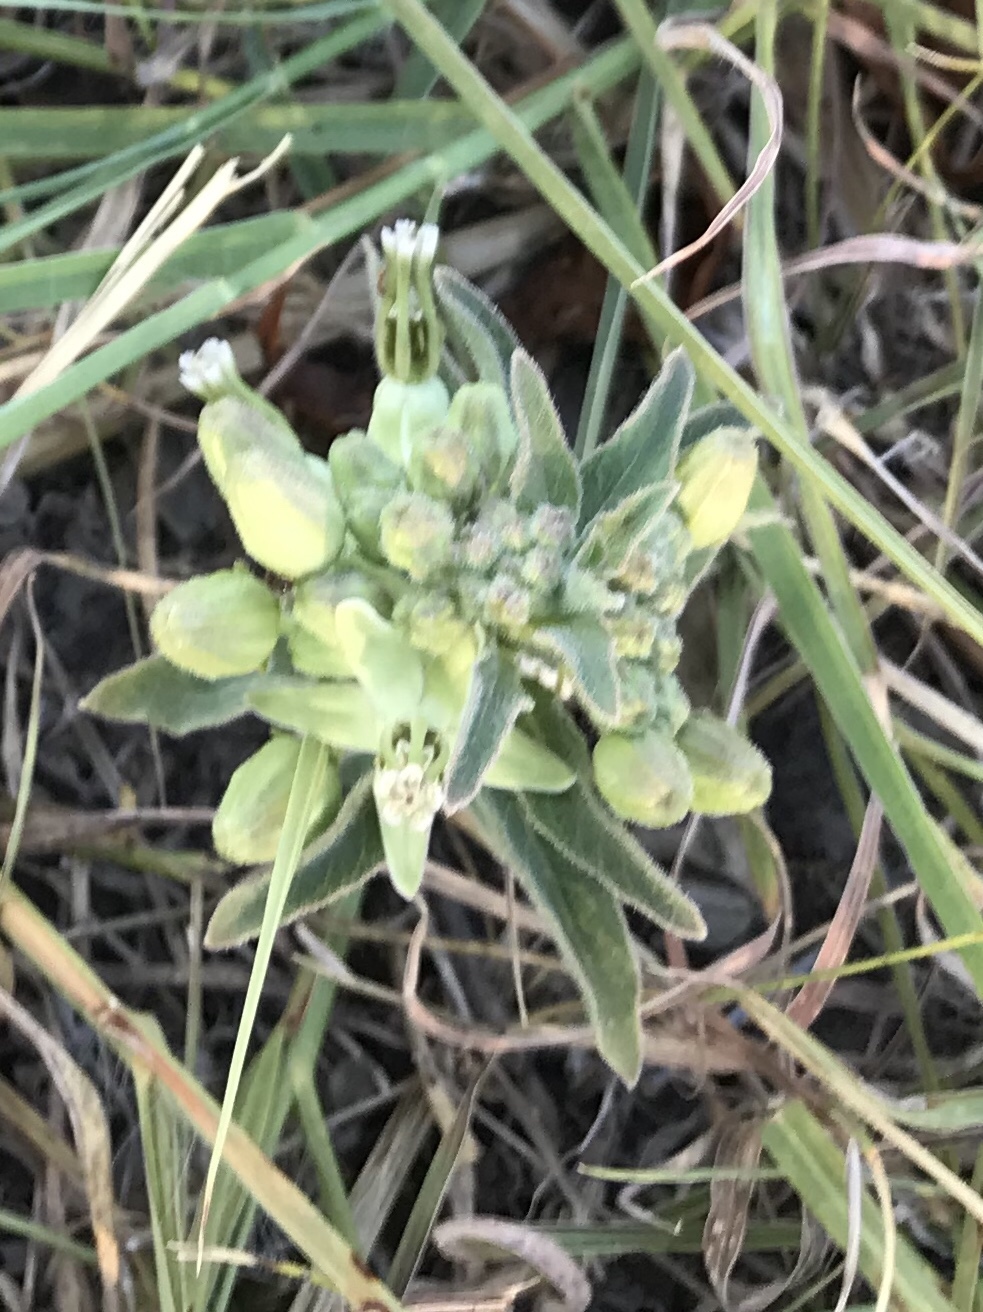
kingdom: Plantae
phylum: Tracheophyta
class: Magnoliopsida
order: Gentianales
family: Apocynaceae
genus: Asclepias
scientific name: Asclepias oenotheroides
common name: Zizotes milkweed
